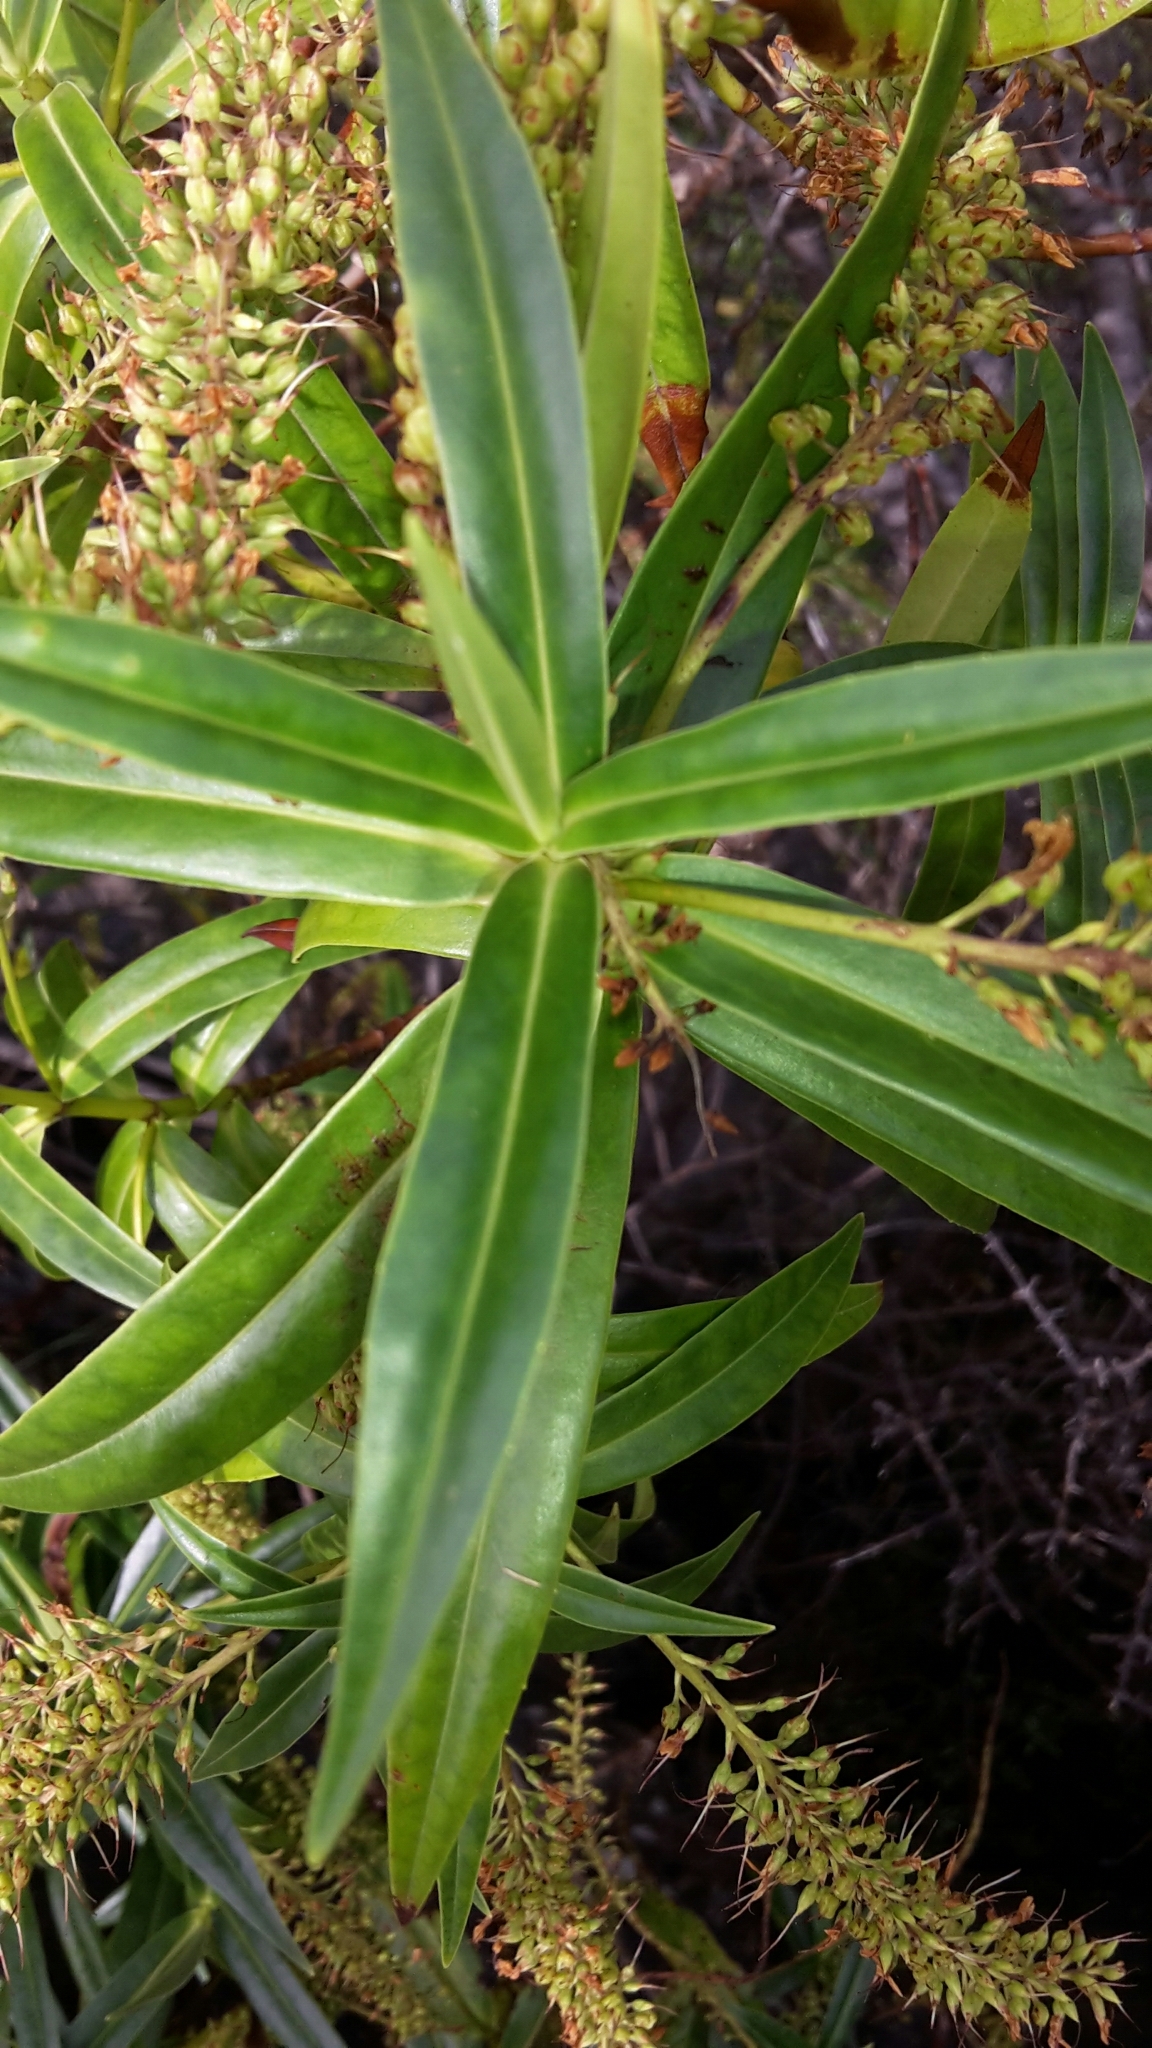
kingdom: Plantae
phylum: Tracheophyta
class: Magnoliopsida
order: Lamiales
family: Plantaginaceae
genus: Veronica
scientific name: Veronica salicifolia
